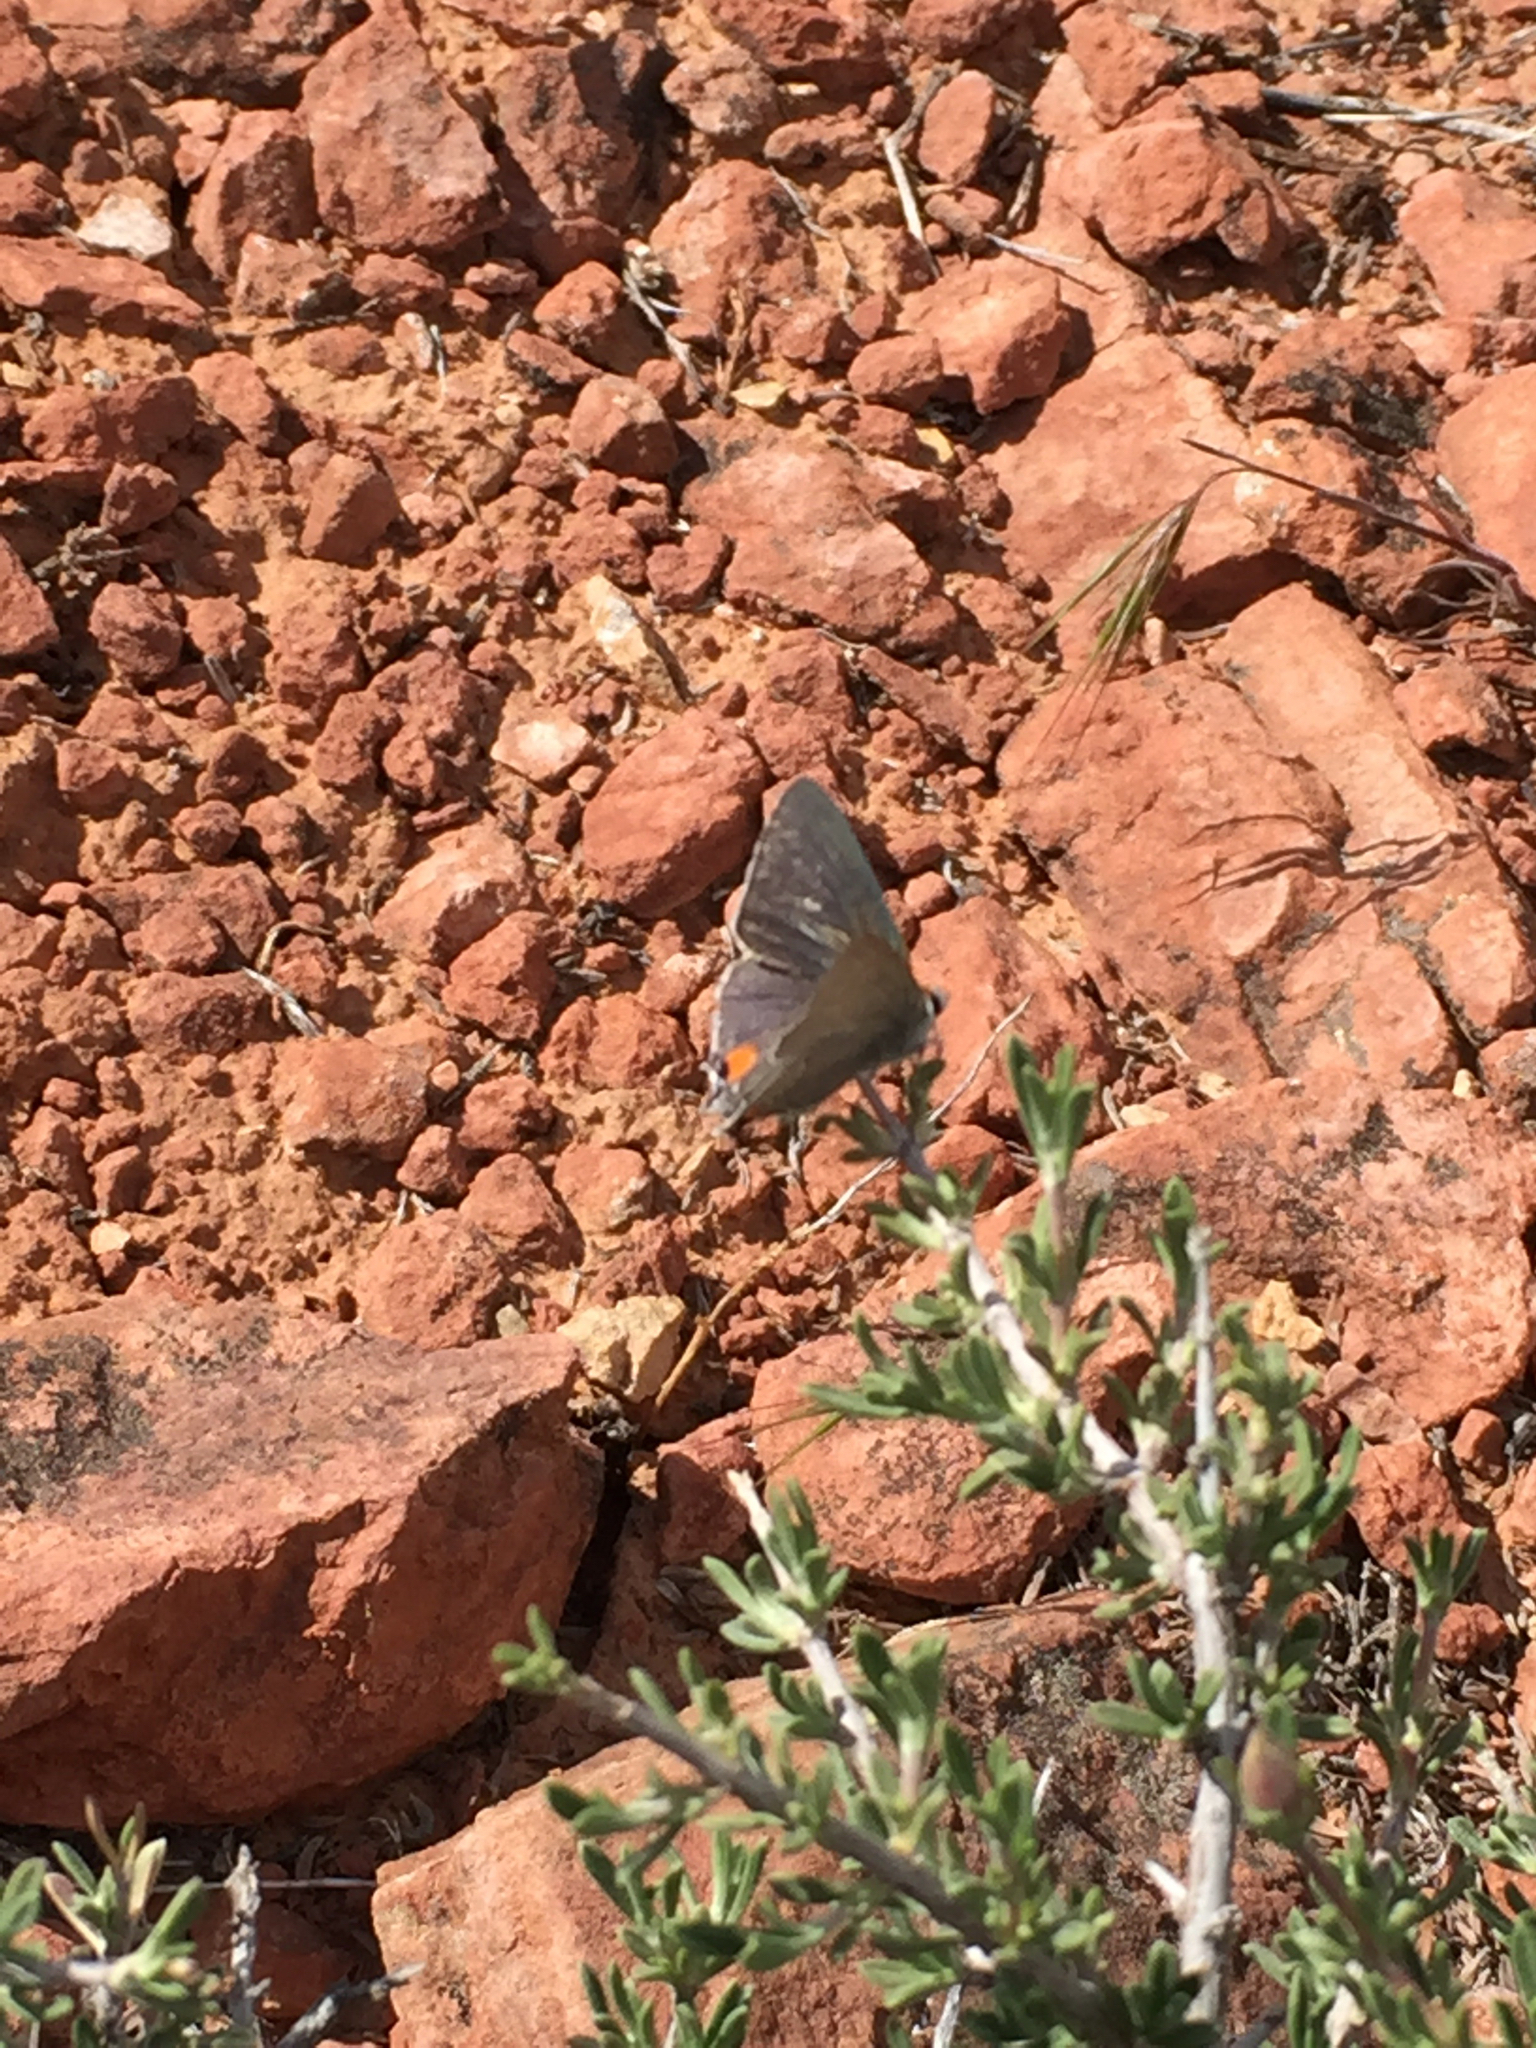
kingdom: Animalia
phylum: Arthropoda
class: Insecta
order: Lepidoptera
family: Lycaenidae
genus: Strymon
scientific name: Strymon melinus
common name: Gray hairstreak
